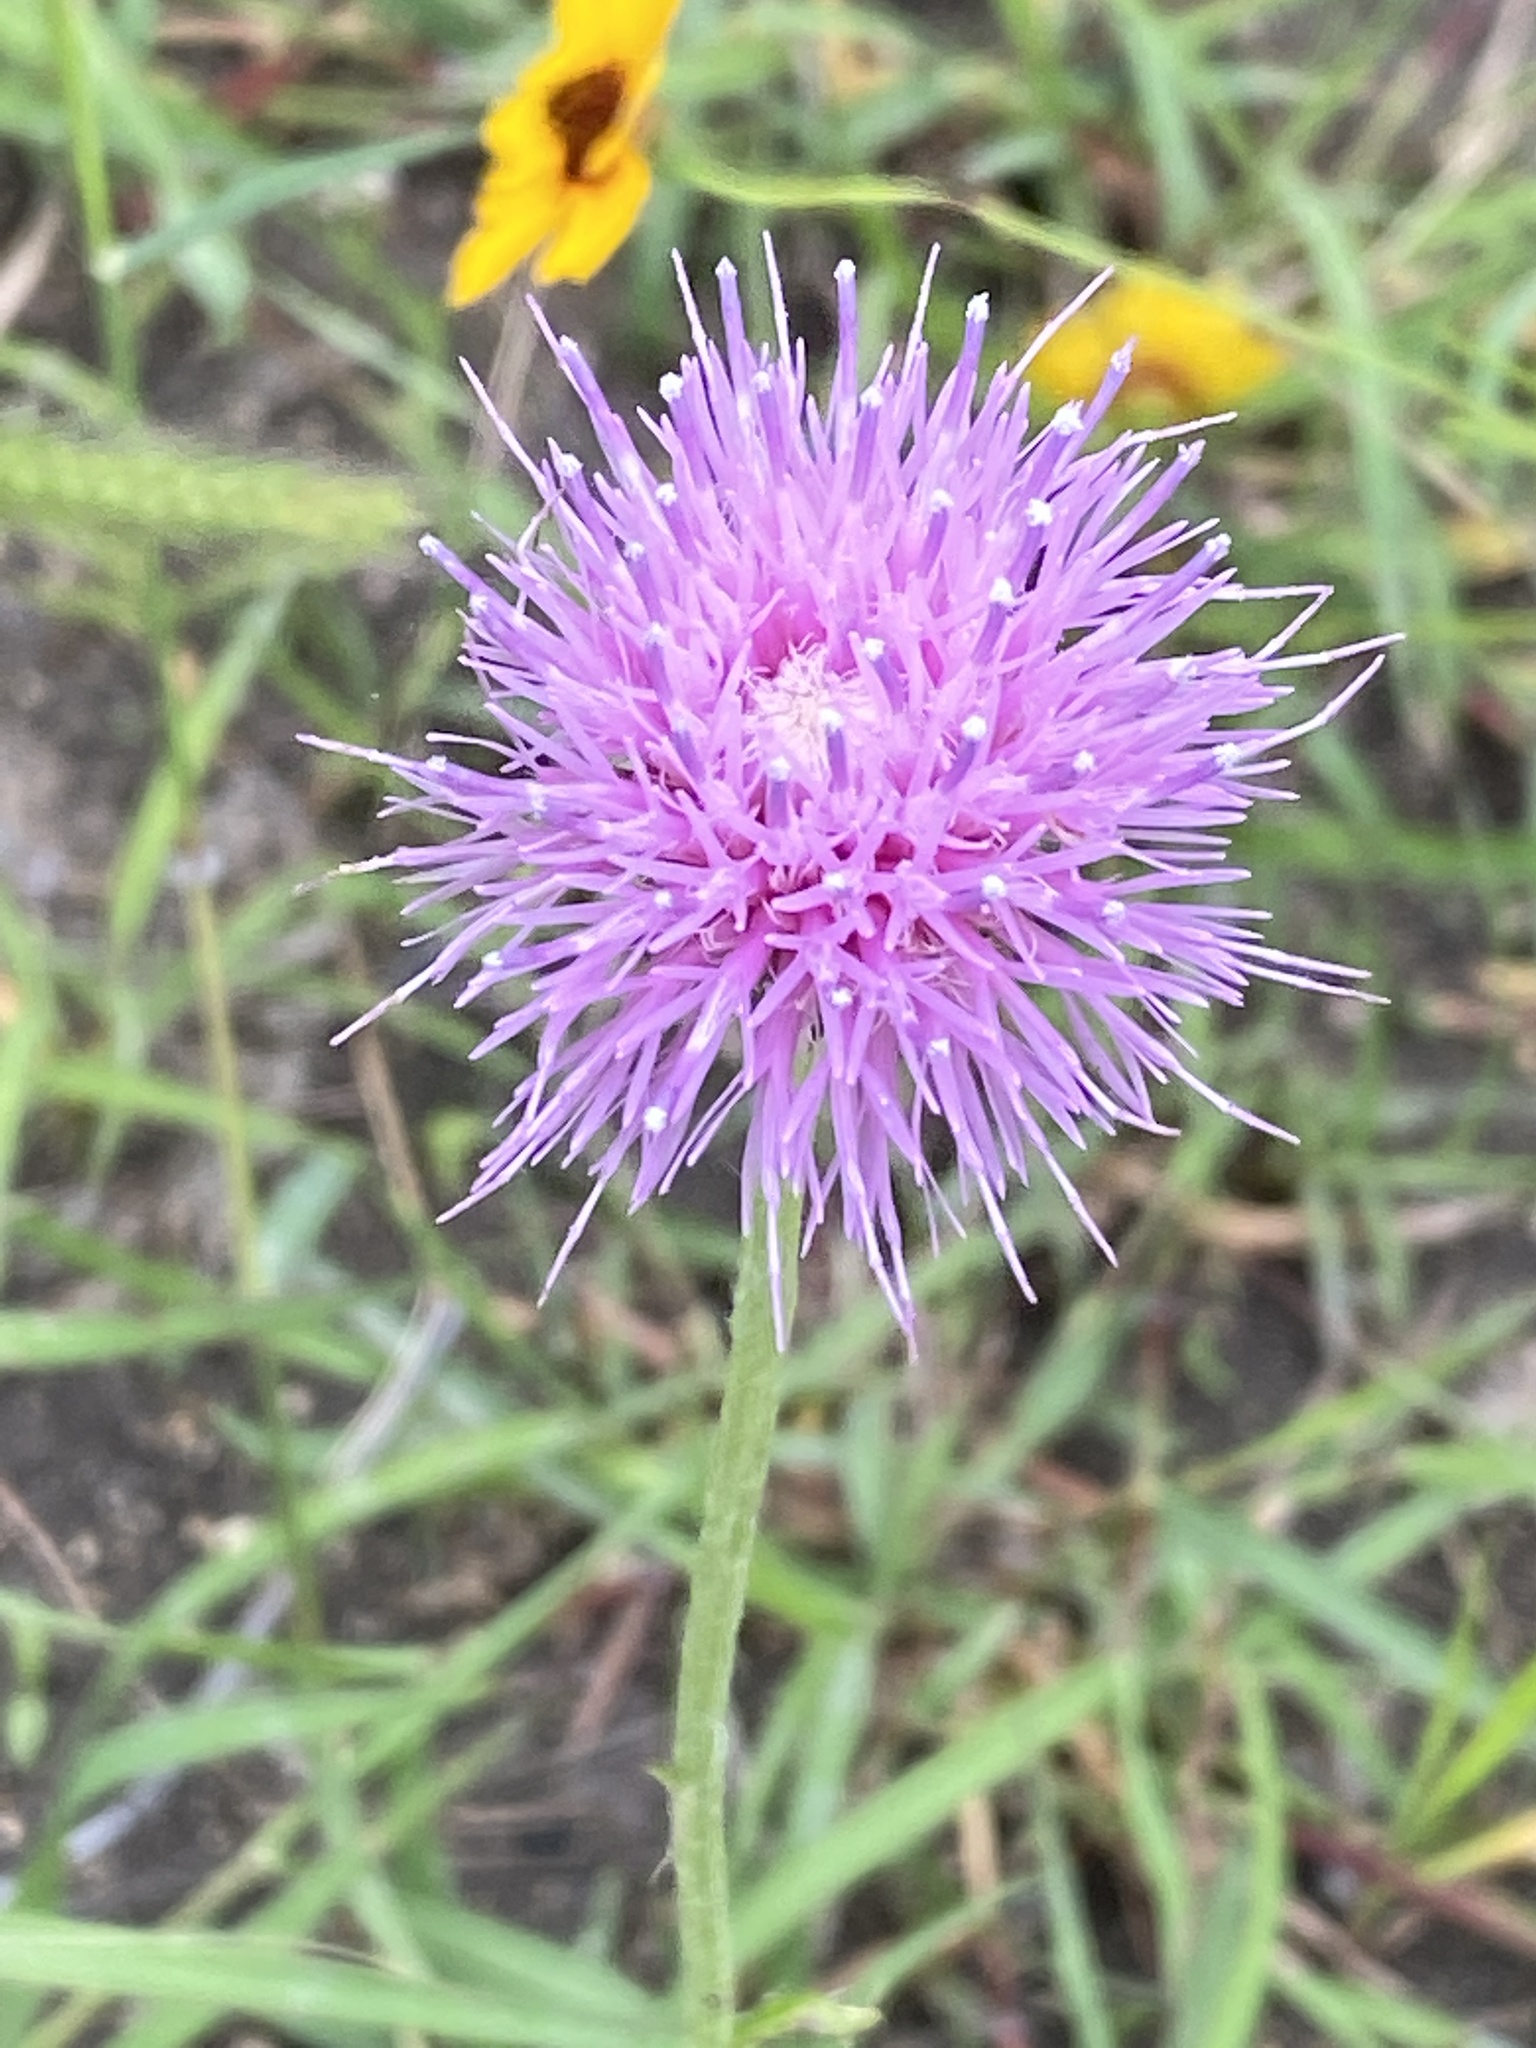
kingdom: Plantae
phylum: Tracheophyta
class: Magnoliopsida
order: Asterales
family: Asteraceae
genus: Cirsium
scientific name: Cirsium texanum
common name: Texas purple thistle
